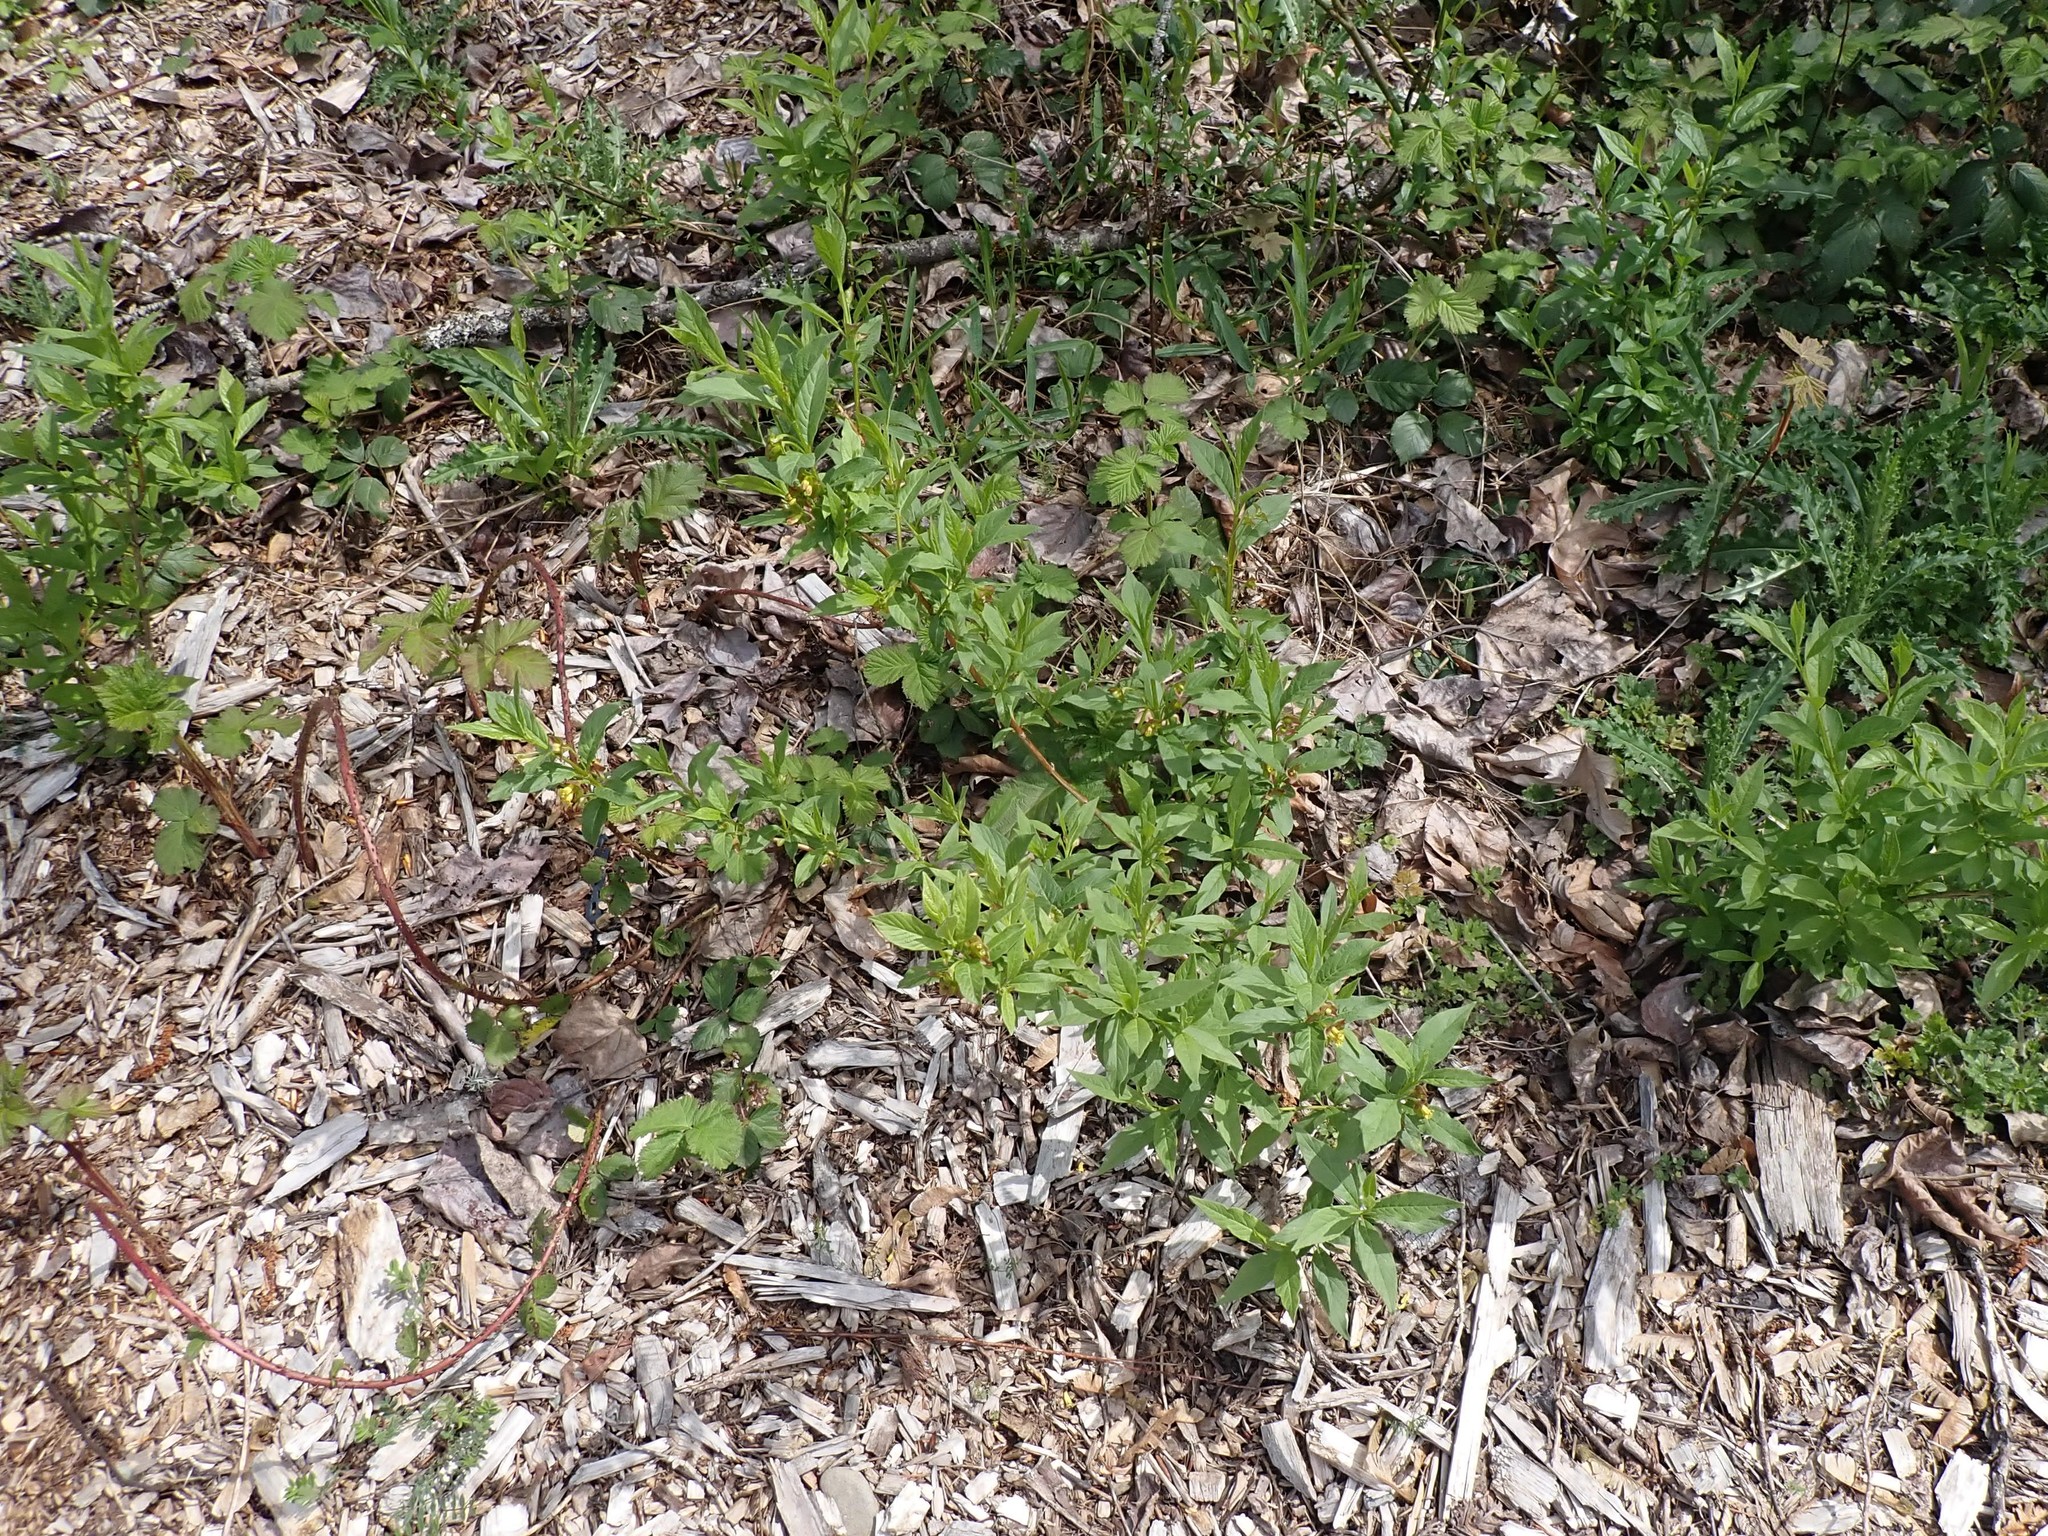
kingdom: Plantae
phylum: Tracheophyta
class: Magnoliopsida
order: Dipsacales
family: Caprifoliaceae
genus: Lonicera
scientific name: Lonicera involucrata
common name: Californian honeysuckle
